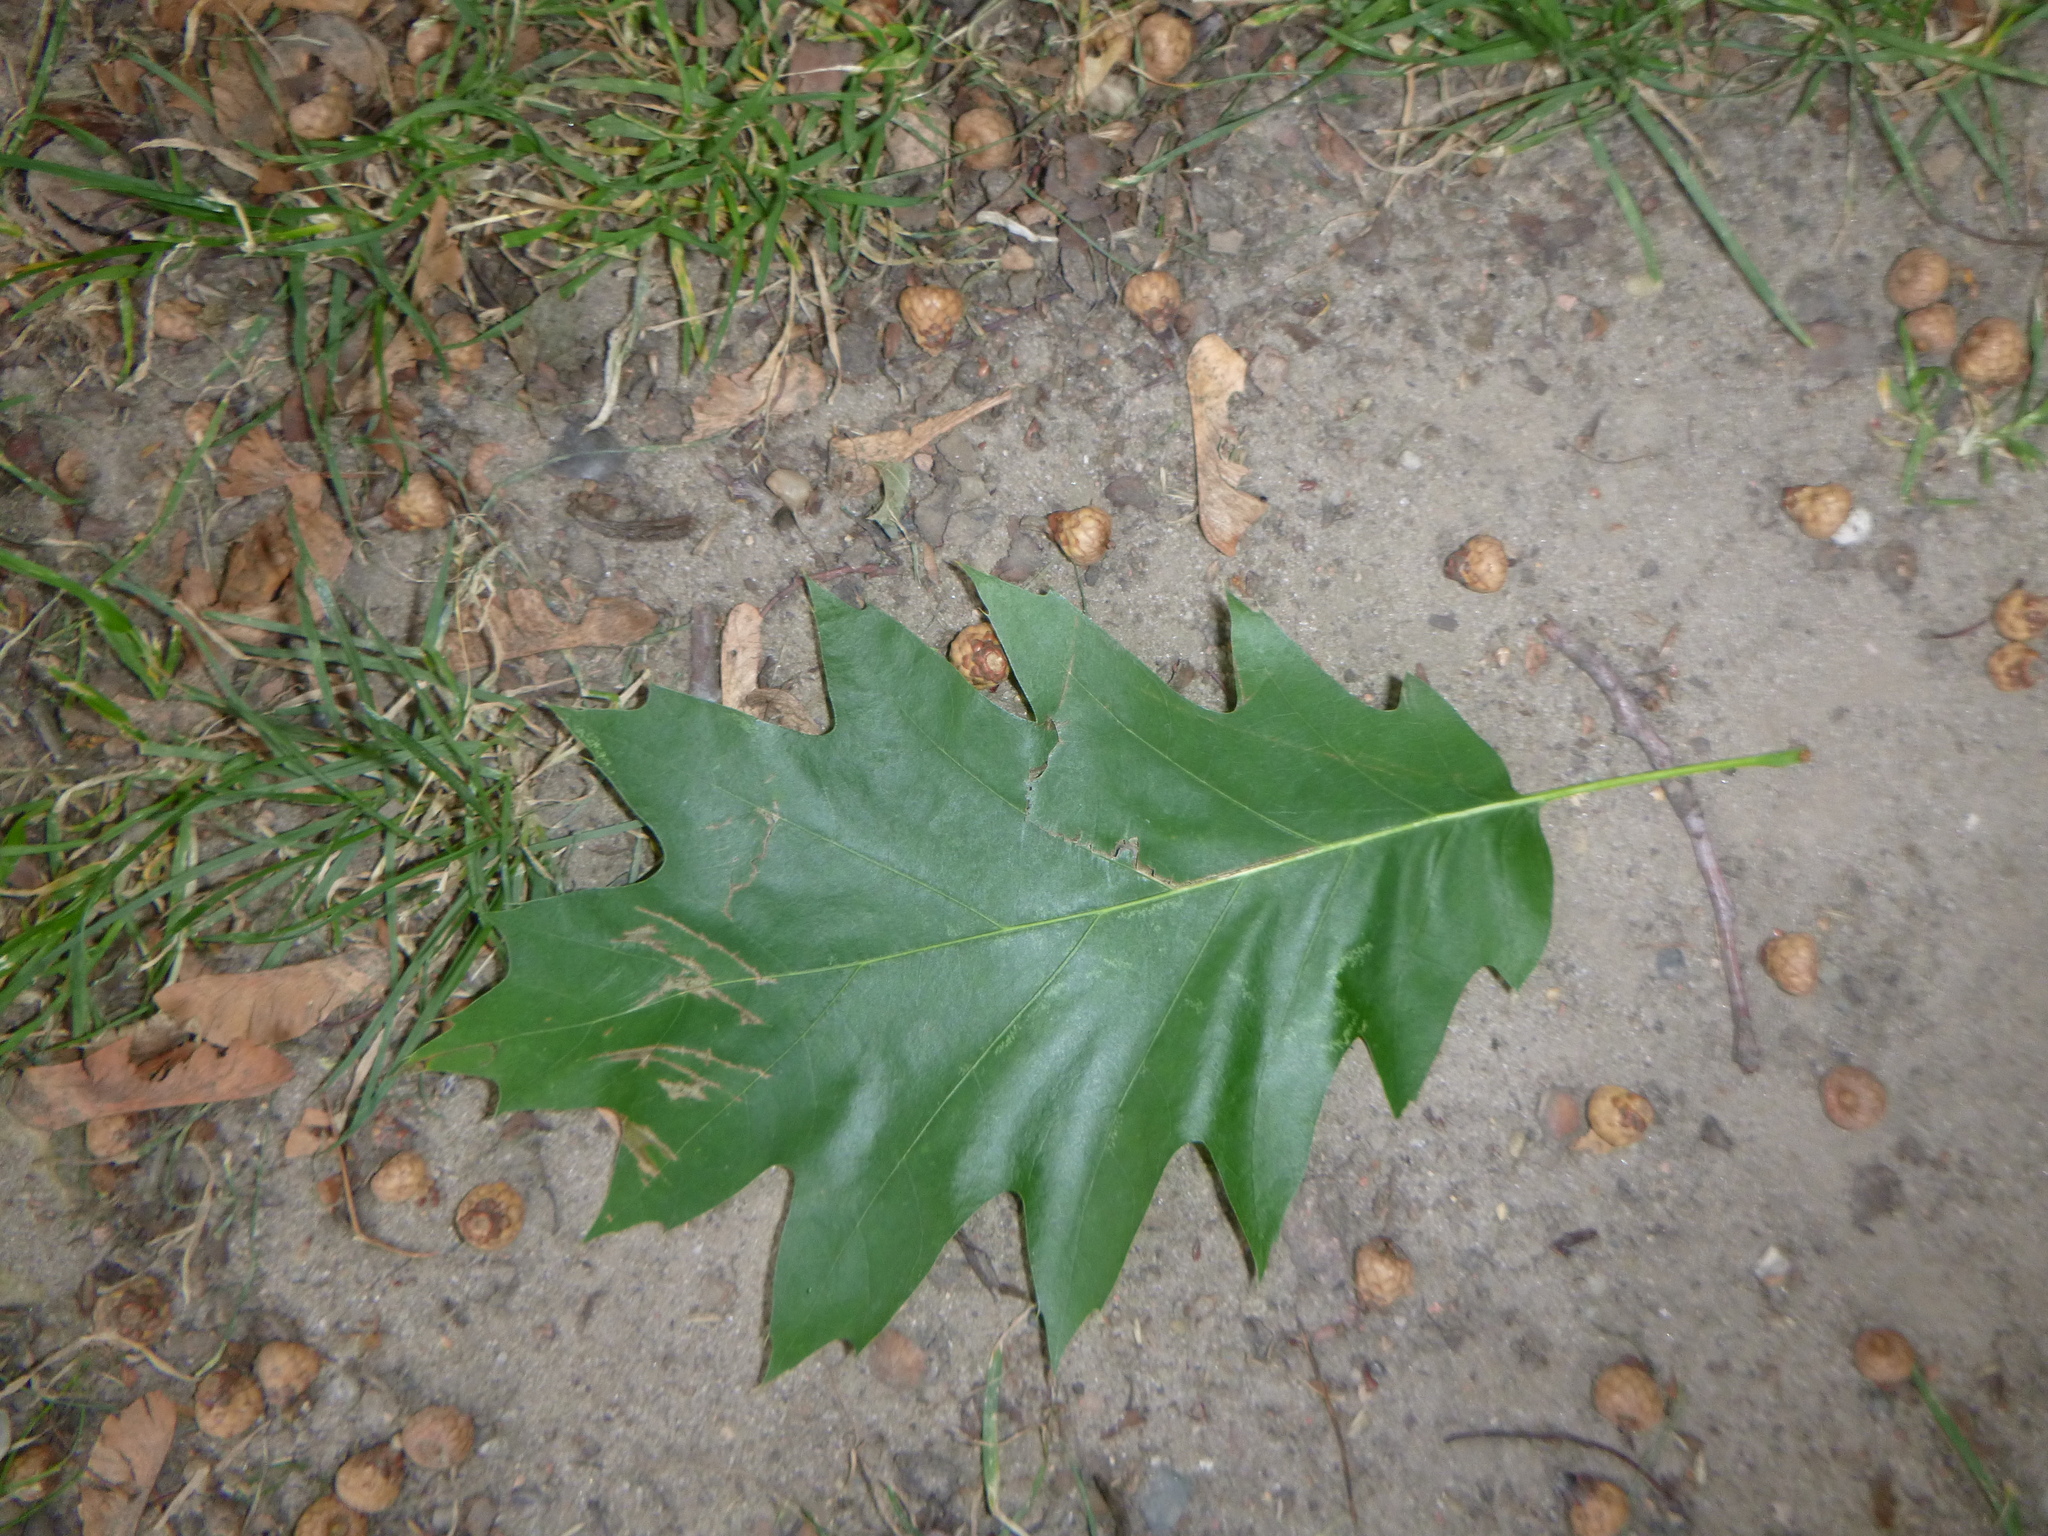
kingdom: Plantae
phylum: Tracheophyta
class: Magnoliopsida
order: Fagales
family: Fagaceae
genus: Quercus
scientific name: Quercus rubra
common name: Red oak
